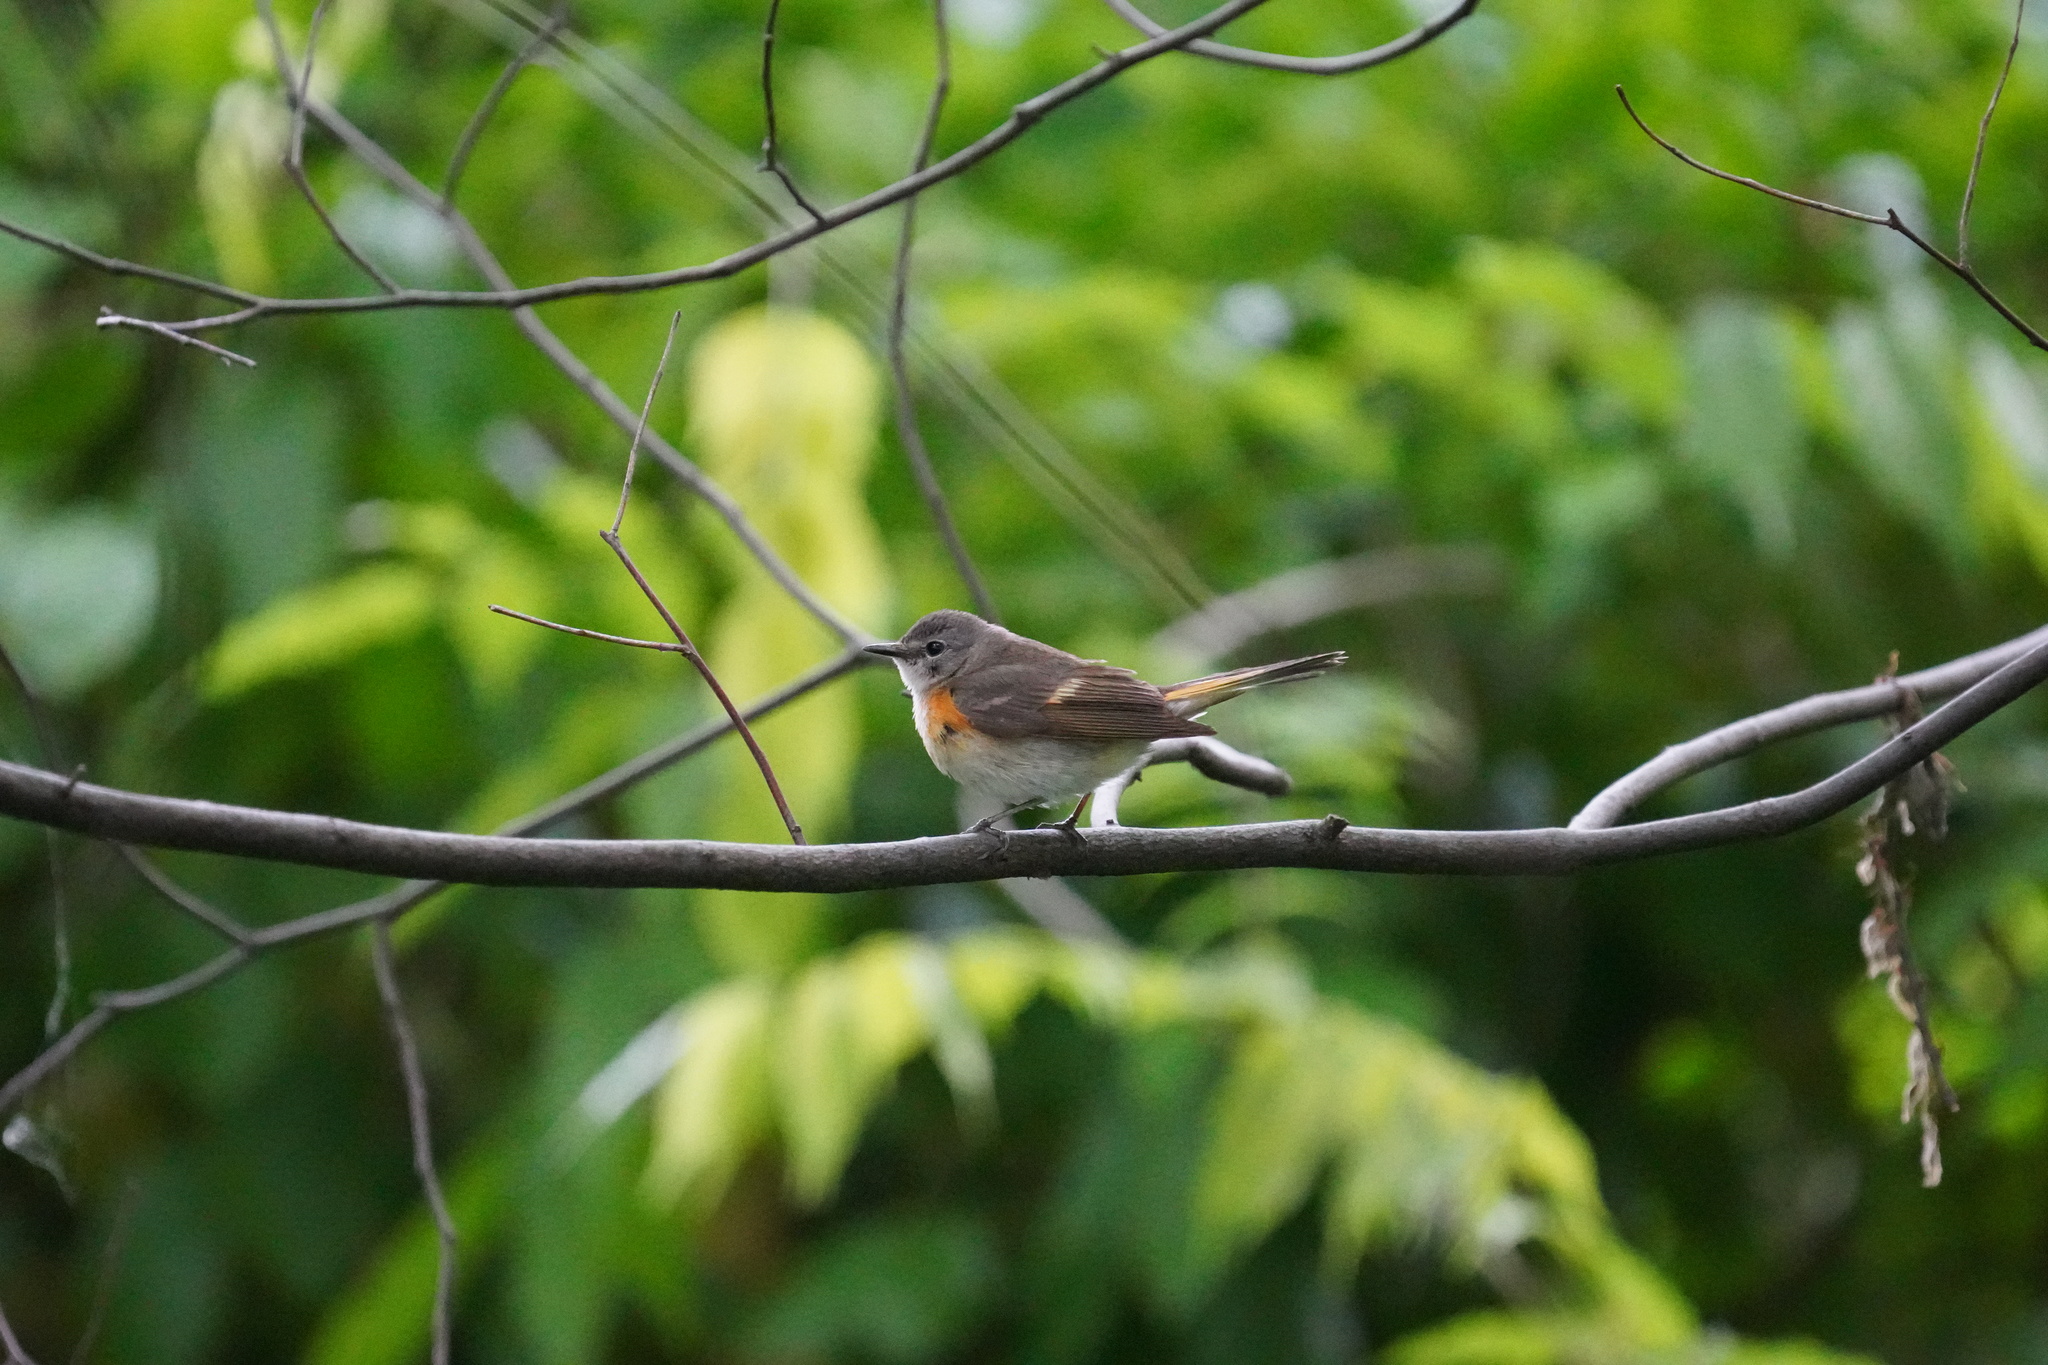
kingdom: Animalia
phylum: Chordata
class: Aves
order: Passeriformes
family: Parulidae
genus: Setophaga
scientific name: Setophaga ruticilla
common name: American redstart
